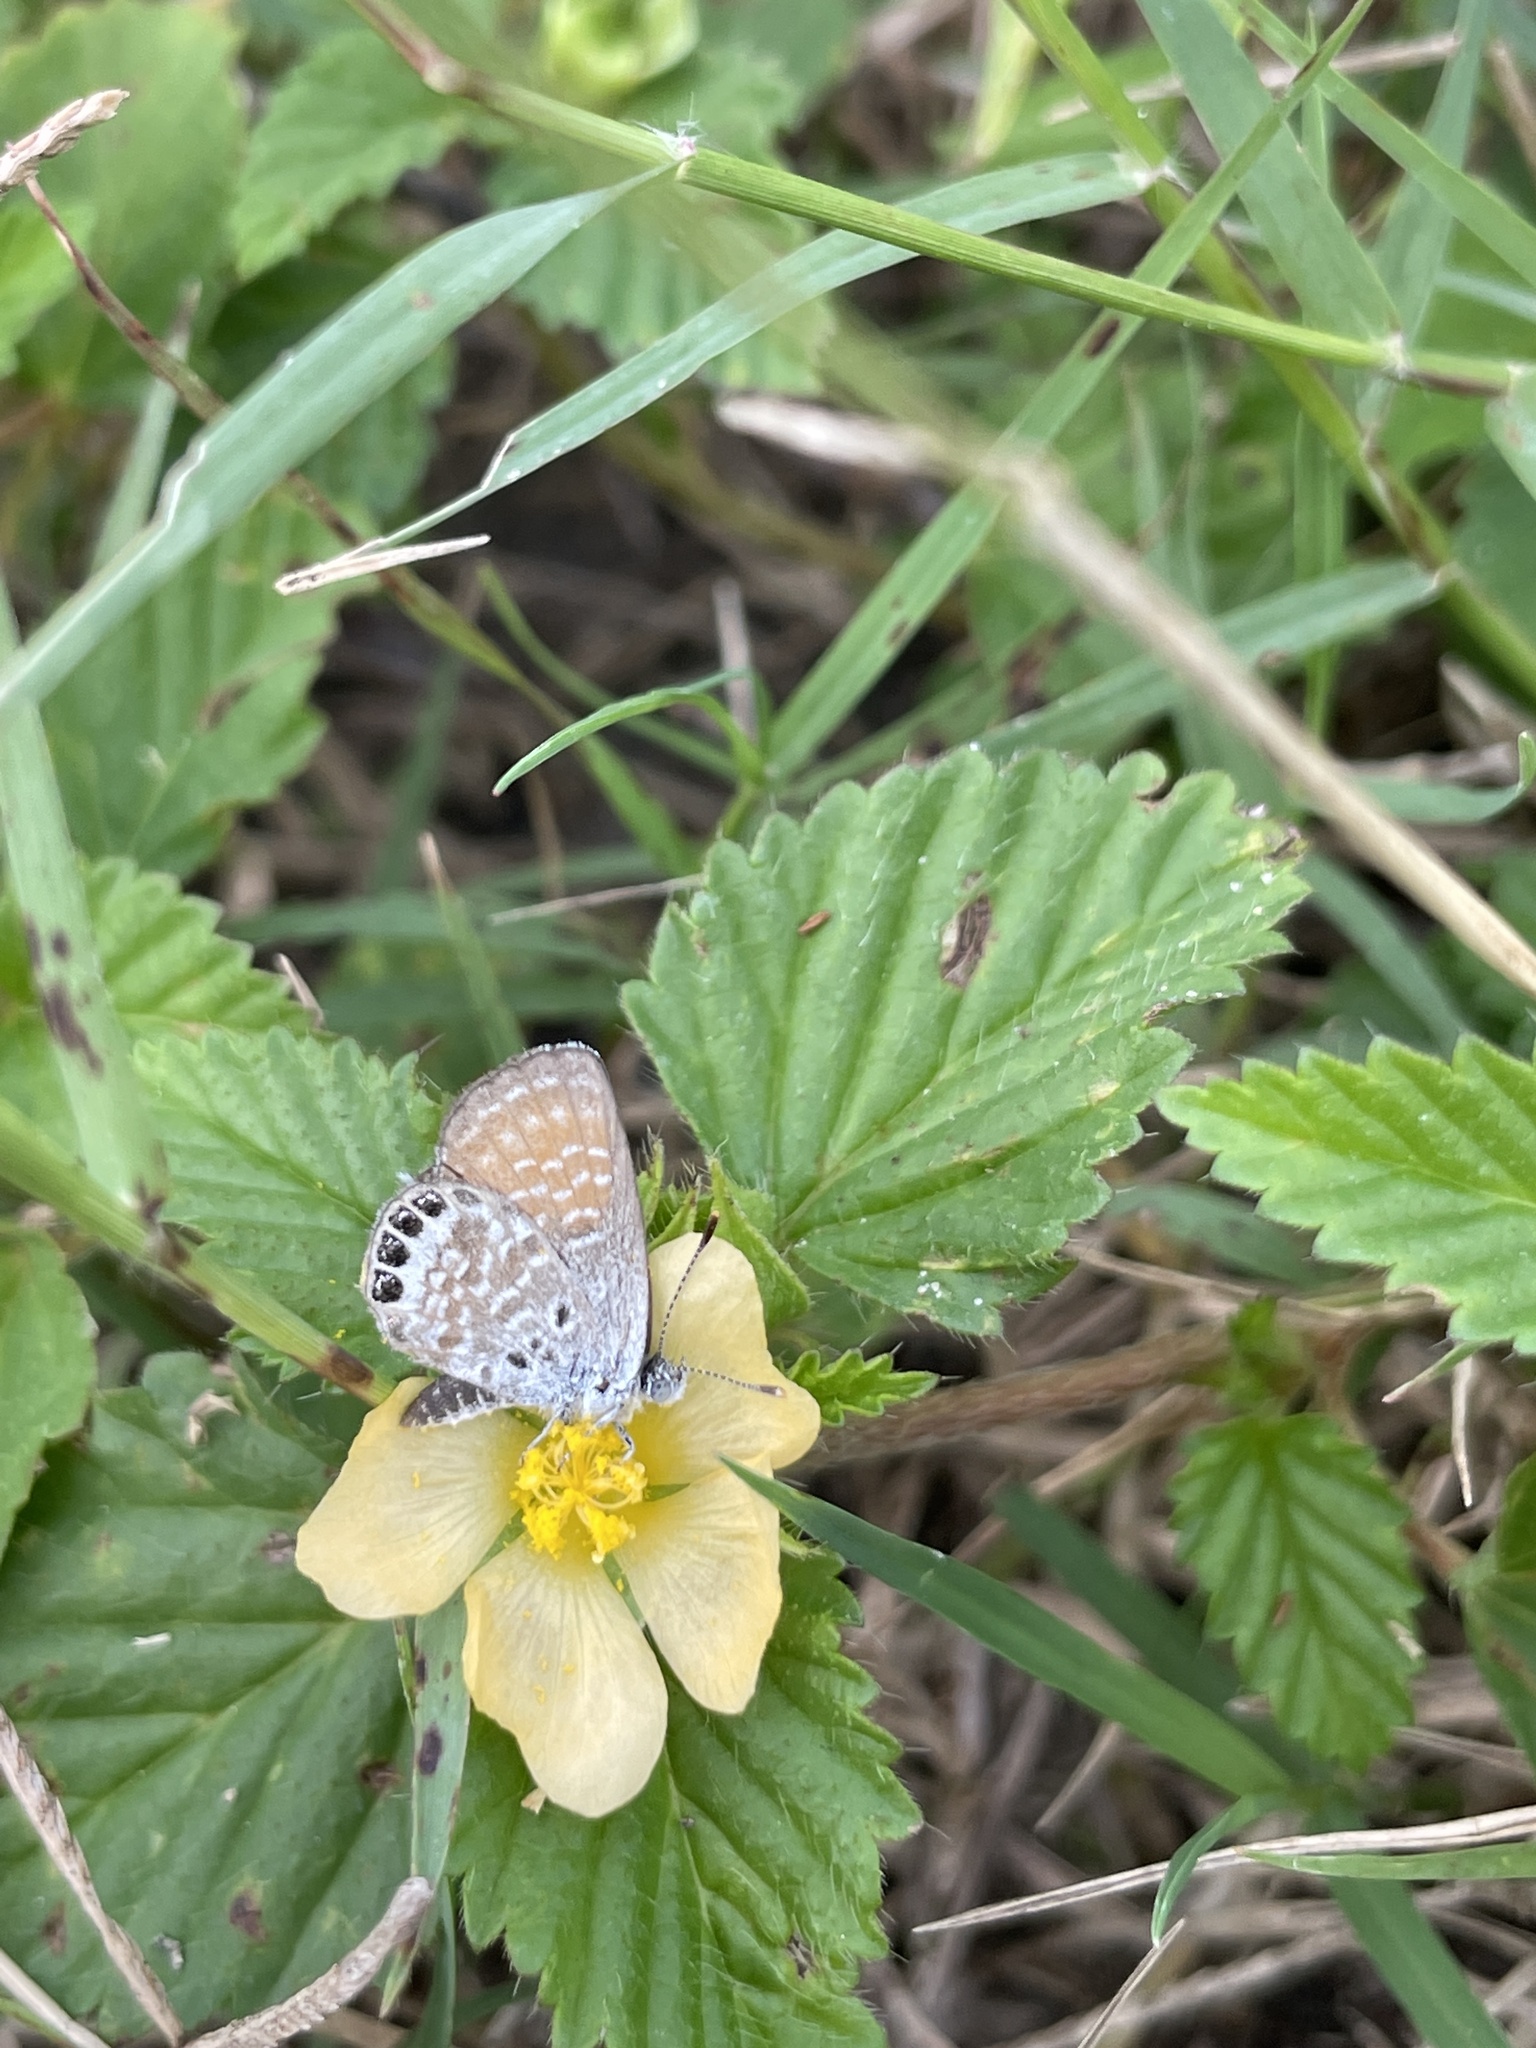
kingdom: Animalia
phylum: Arthropoda
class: Insecta
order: Lepidoptera
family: Lycaenidae
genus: Brephidium
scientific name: Brephidium exilis
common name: Pygmy blue
